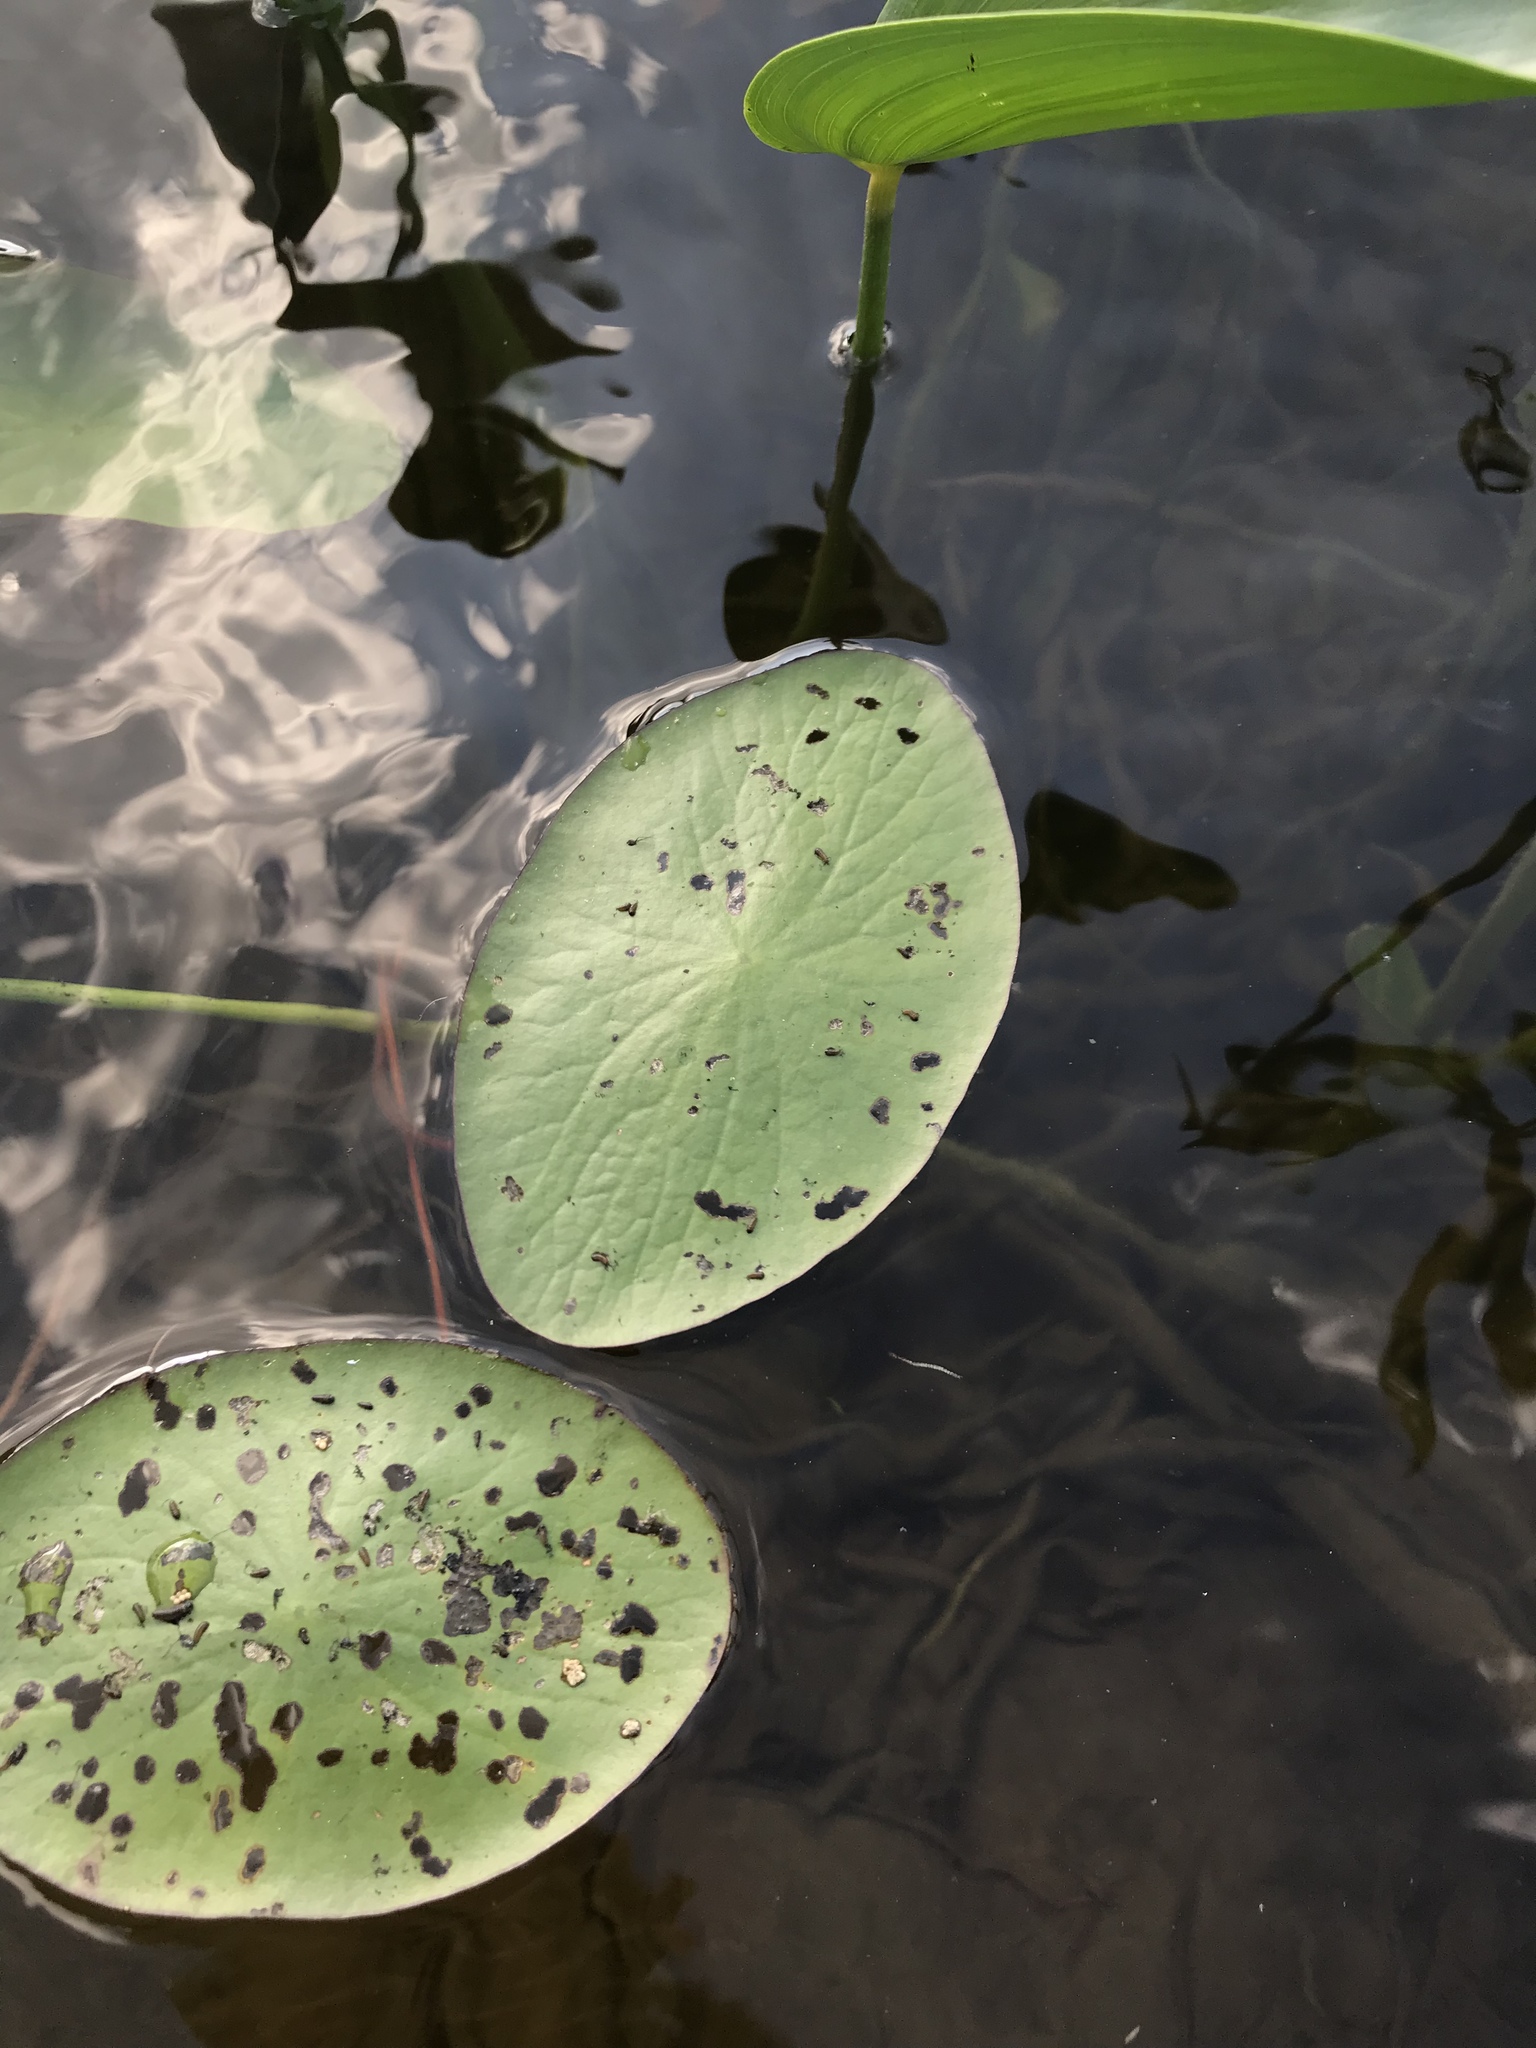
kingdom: Plantae
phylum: Tracheophyta
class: Magnoliopsida
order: Nymphaeales
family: Cabombaceae
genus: Brasenia
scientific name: Brasenia schreberi
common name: Water-shield
